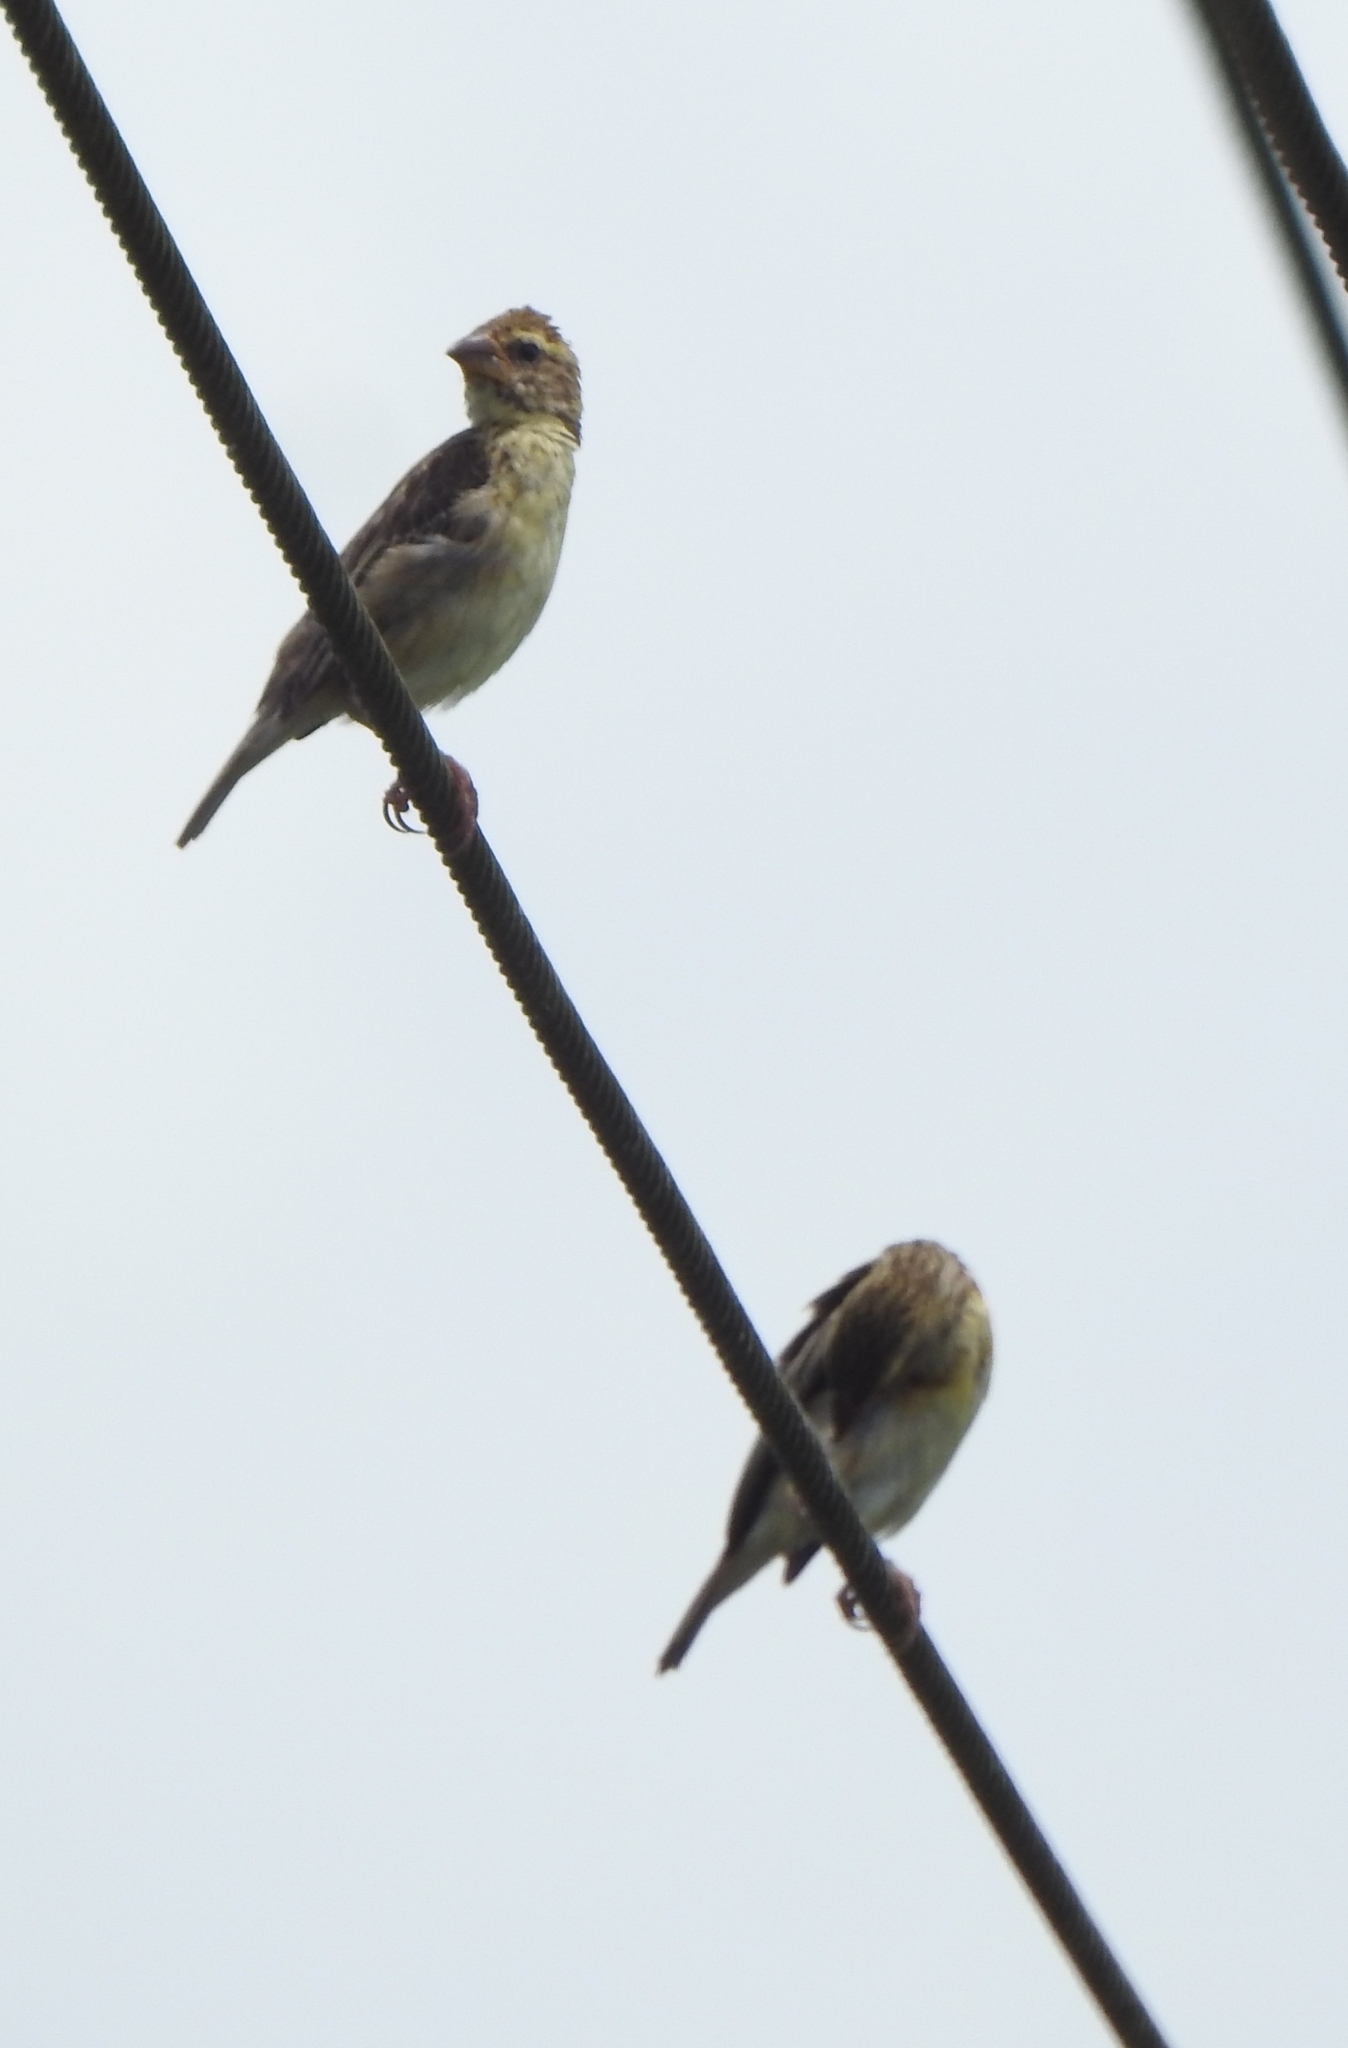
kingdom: Animalia
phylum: Chordata
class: Aves
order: Passeriformes
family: Ploceidae
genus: Ploceus
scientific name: Ploceus philippinus
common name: Baya weaver
